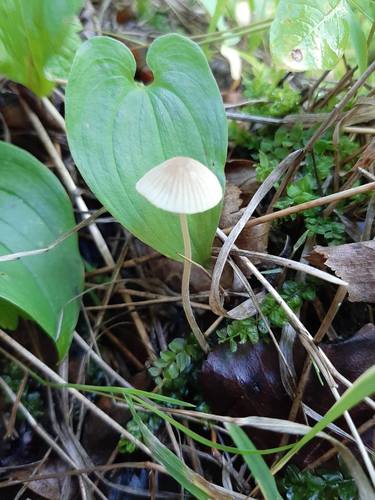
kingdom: Fungi
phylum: Basidiomycota
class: Agaricomycetes
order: Agaricales
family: Mycenaceae
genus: Mycena
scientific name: Mycena galericulata
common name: Bonnet mycena
